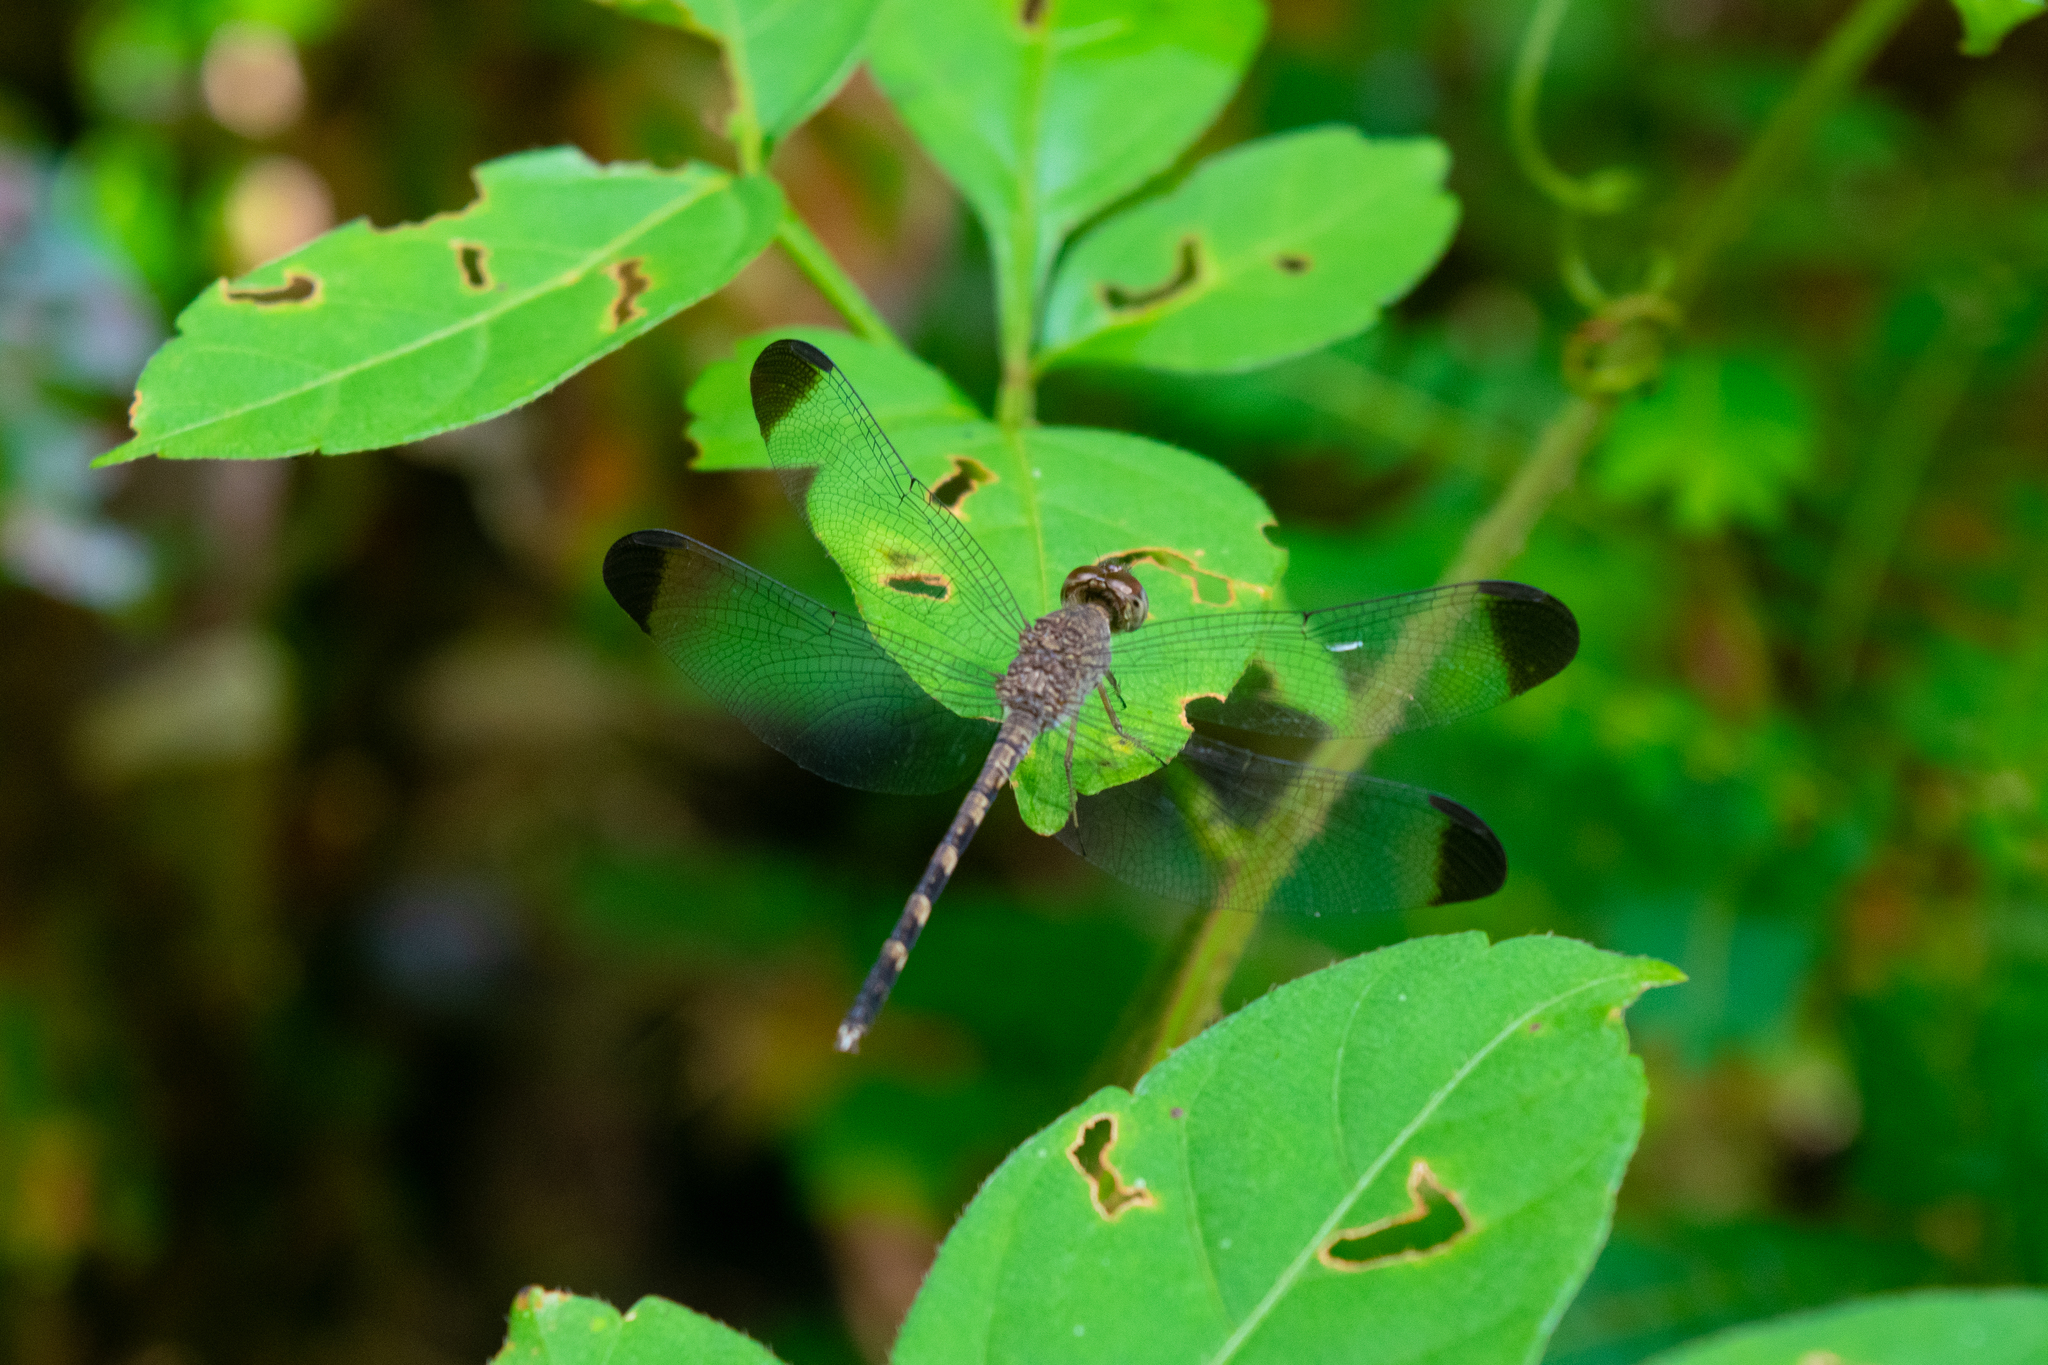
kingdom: Animalia
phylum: Arthropoda
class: Insecta
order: Odonata
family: Libellulidae
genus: Uracis
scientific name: Uracis imbuta
